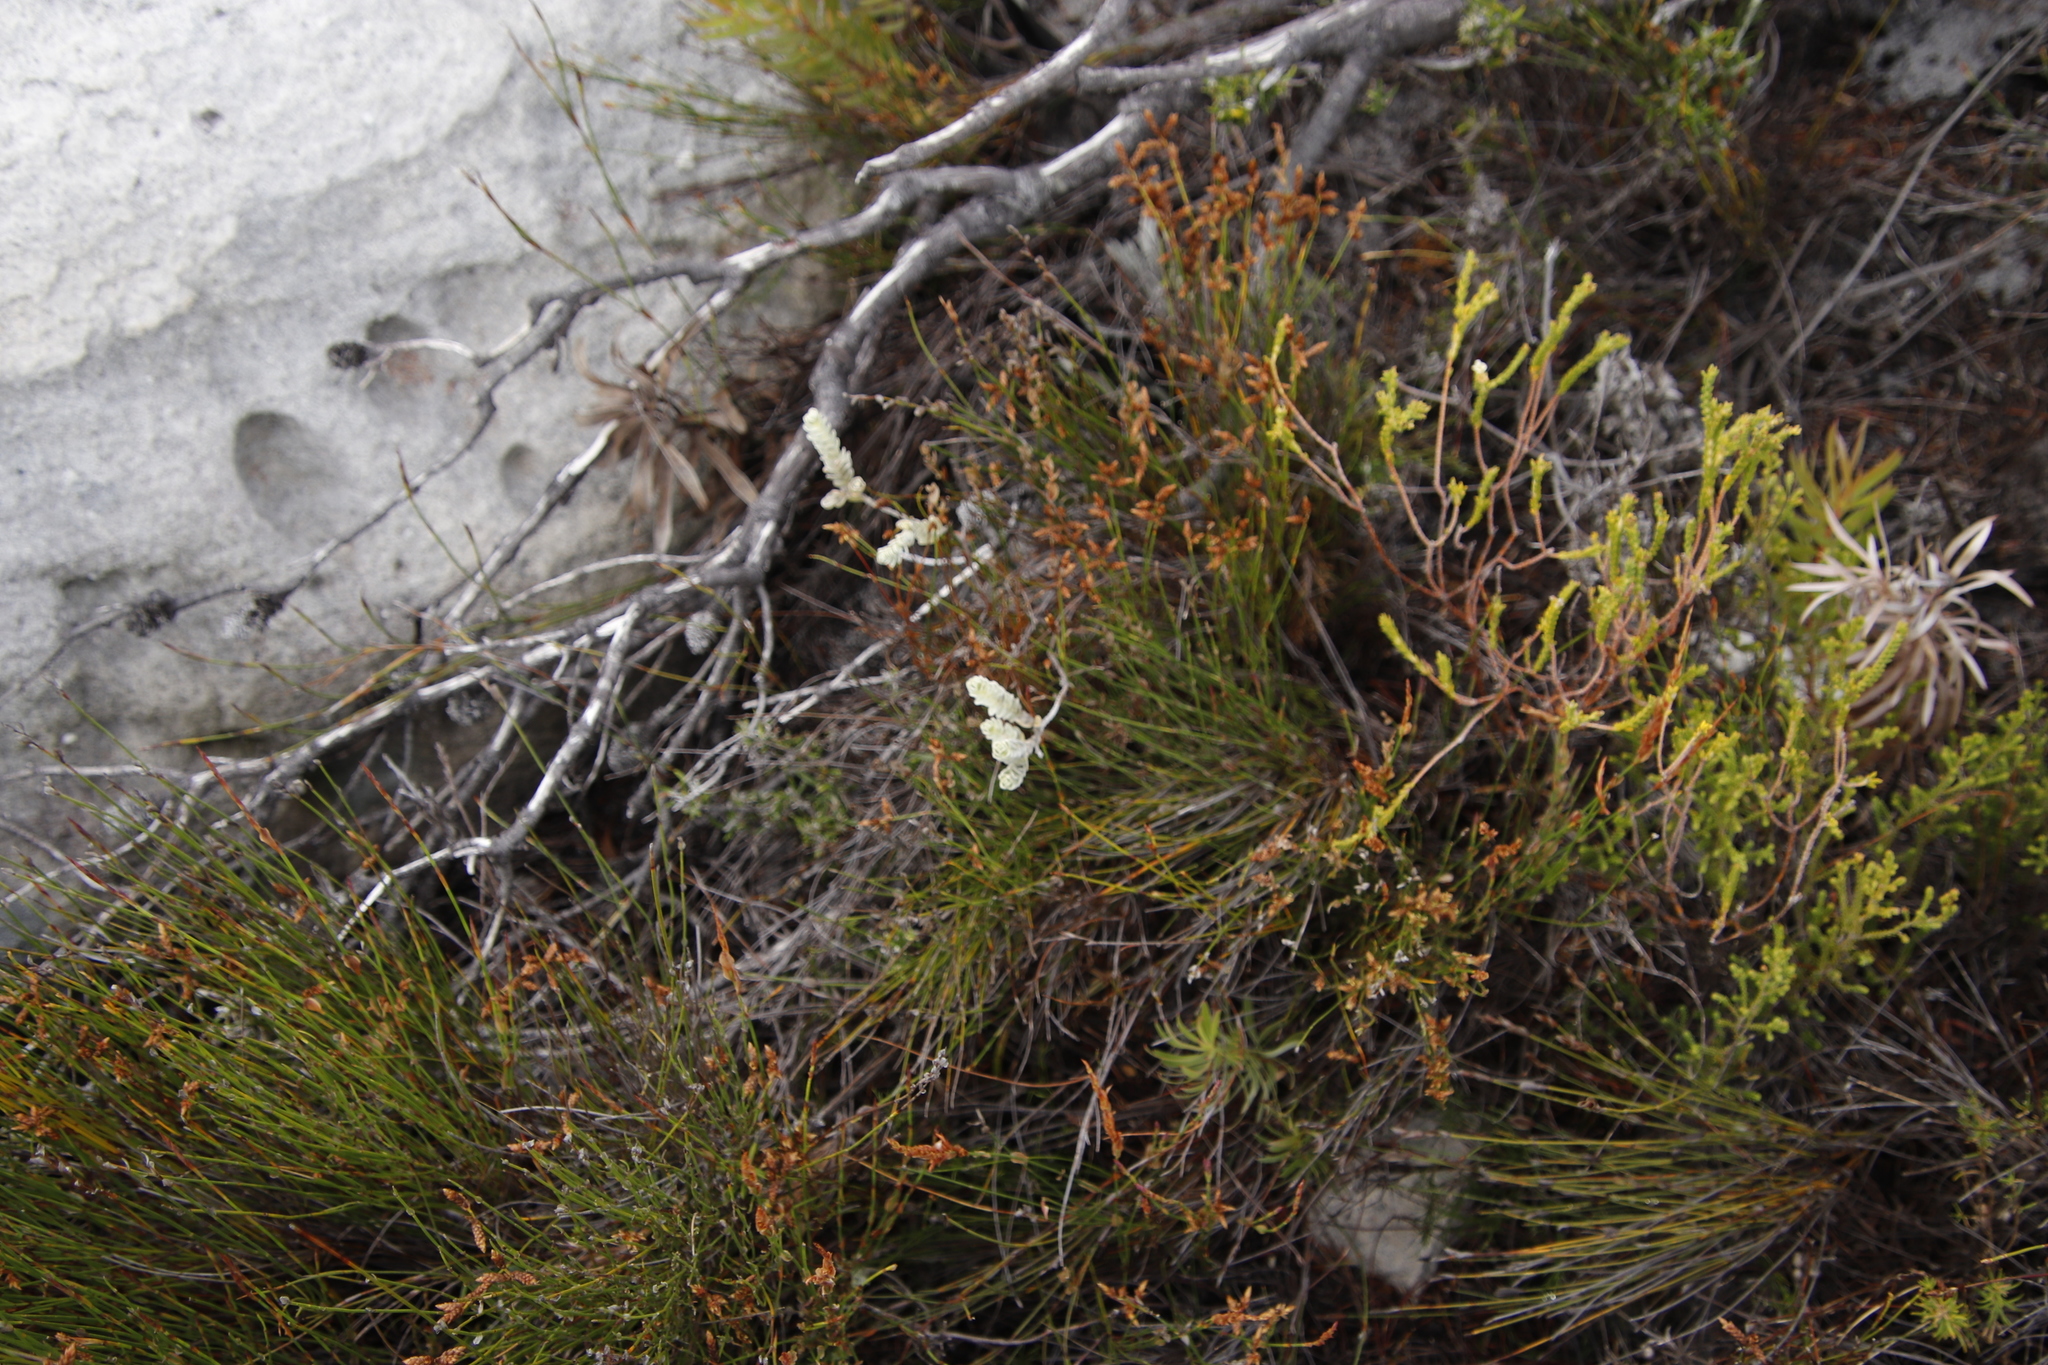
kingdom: Plantae
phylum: Tracheophyta
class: Magnoliopsida
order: Malvales
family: Thymelaeaceae
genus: Gnidia
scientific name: Gnidia imbricata
